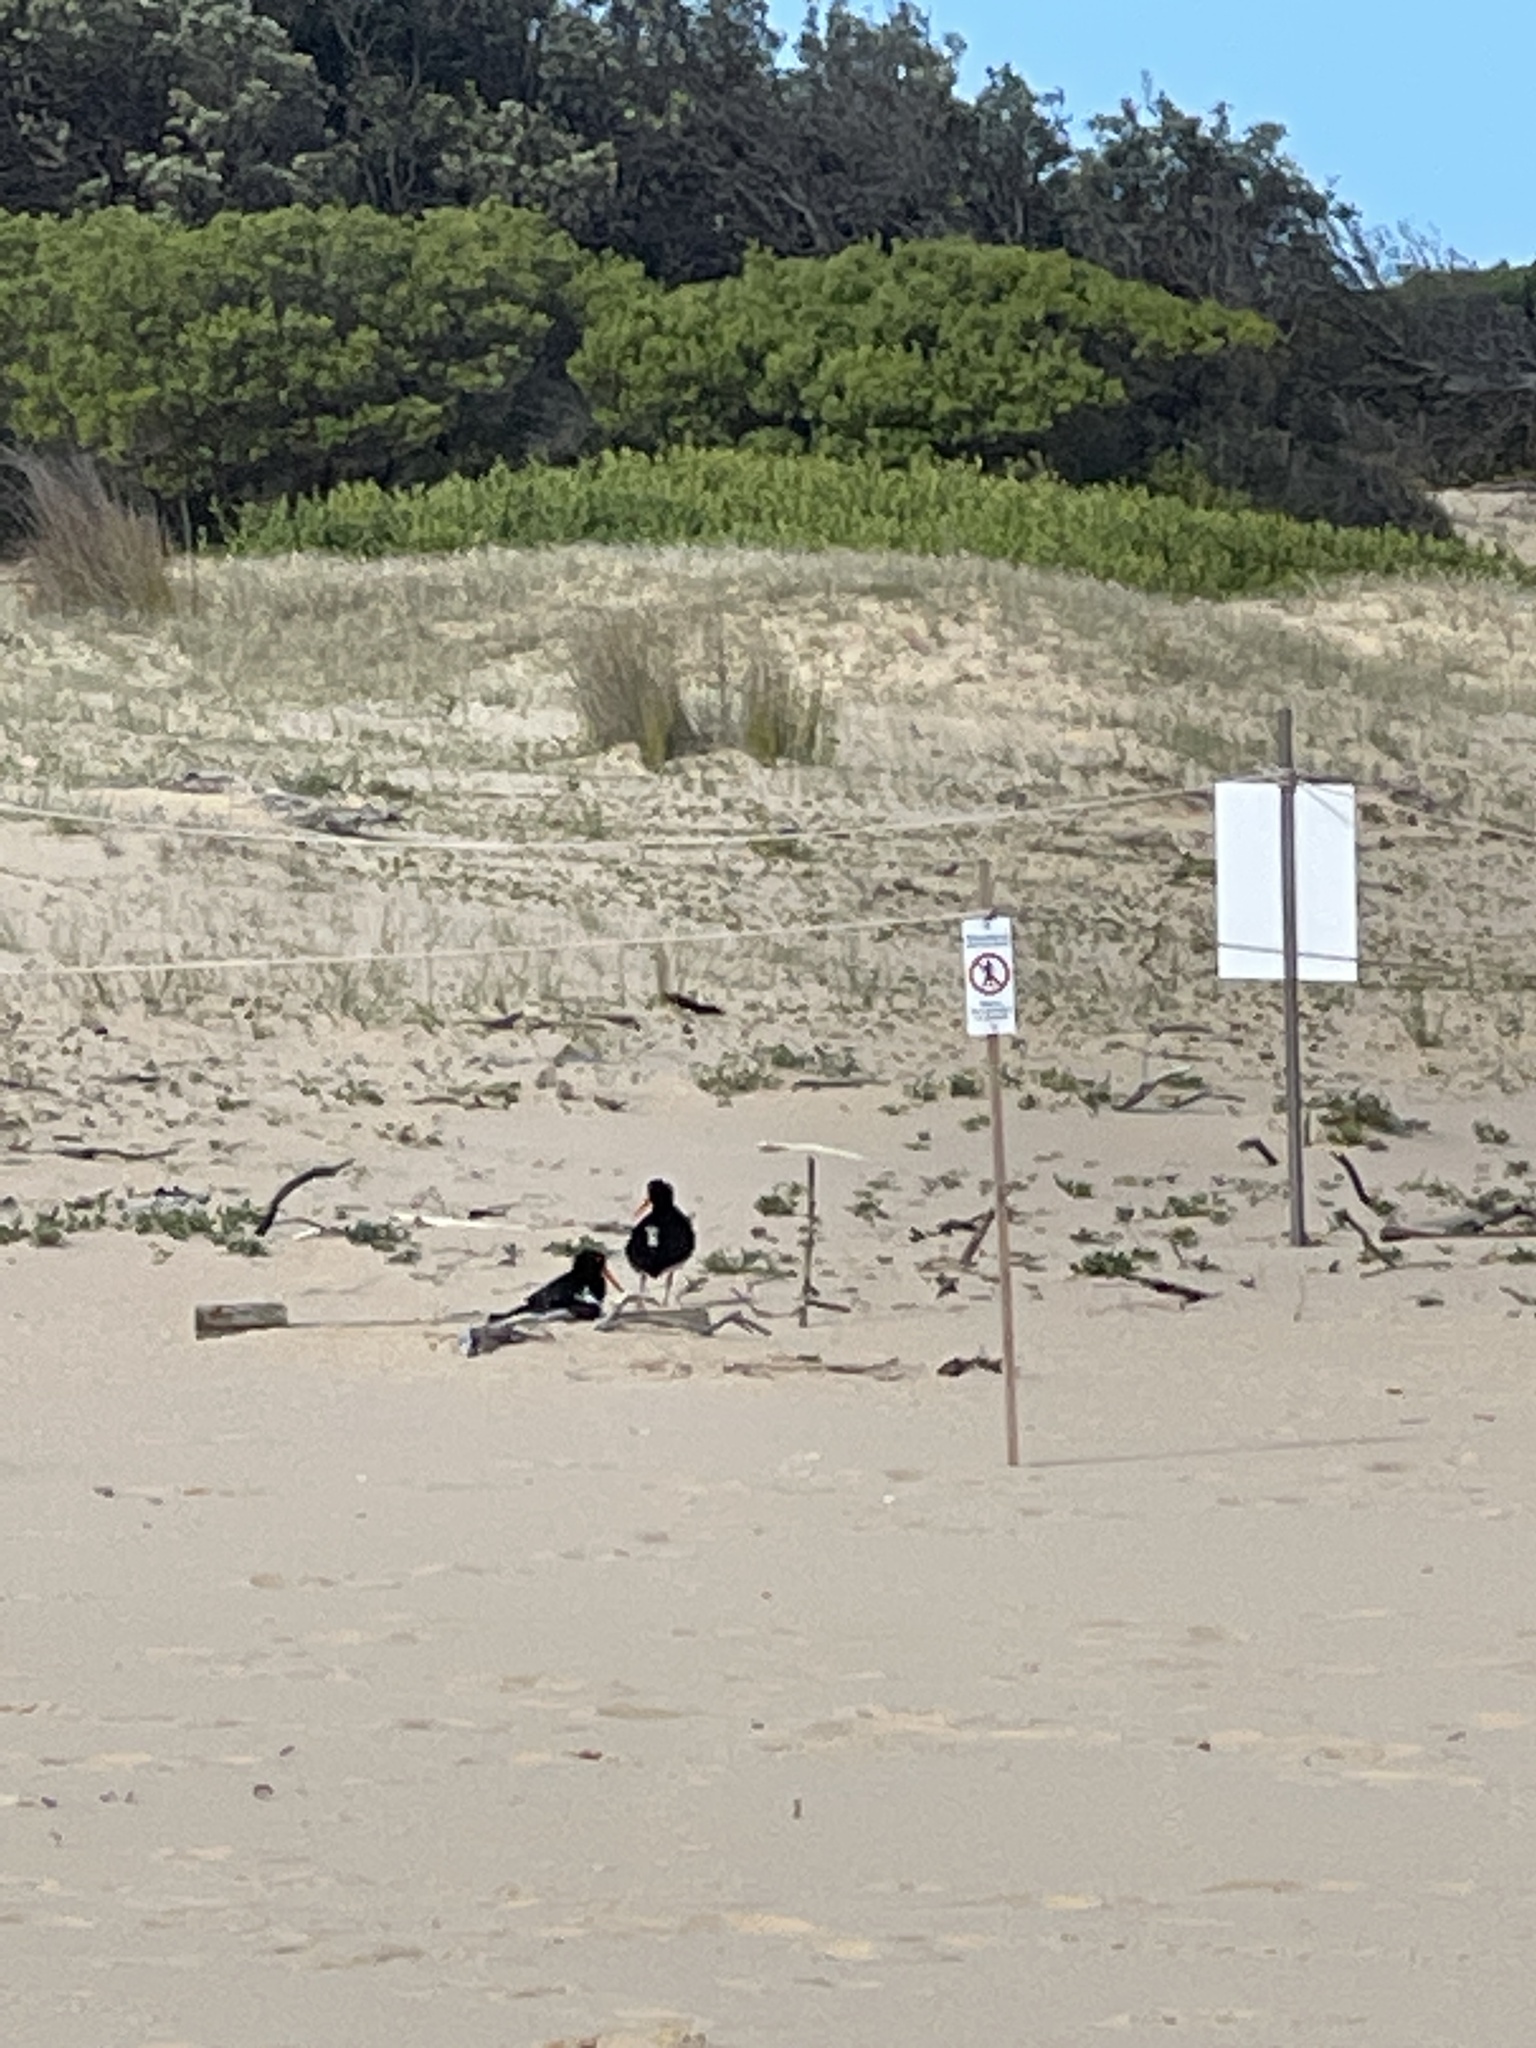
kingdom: Animalia
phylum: Chordata
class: Aves
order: Charadriiformes
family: Haematopodidae
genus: Haematopus
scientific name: Haematopus longirostris
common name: Pied oystercatcher
